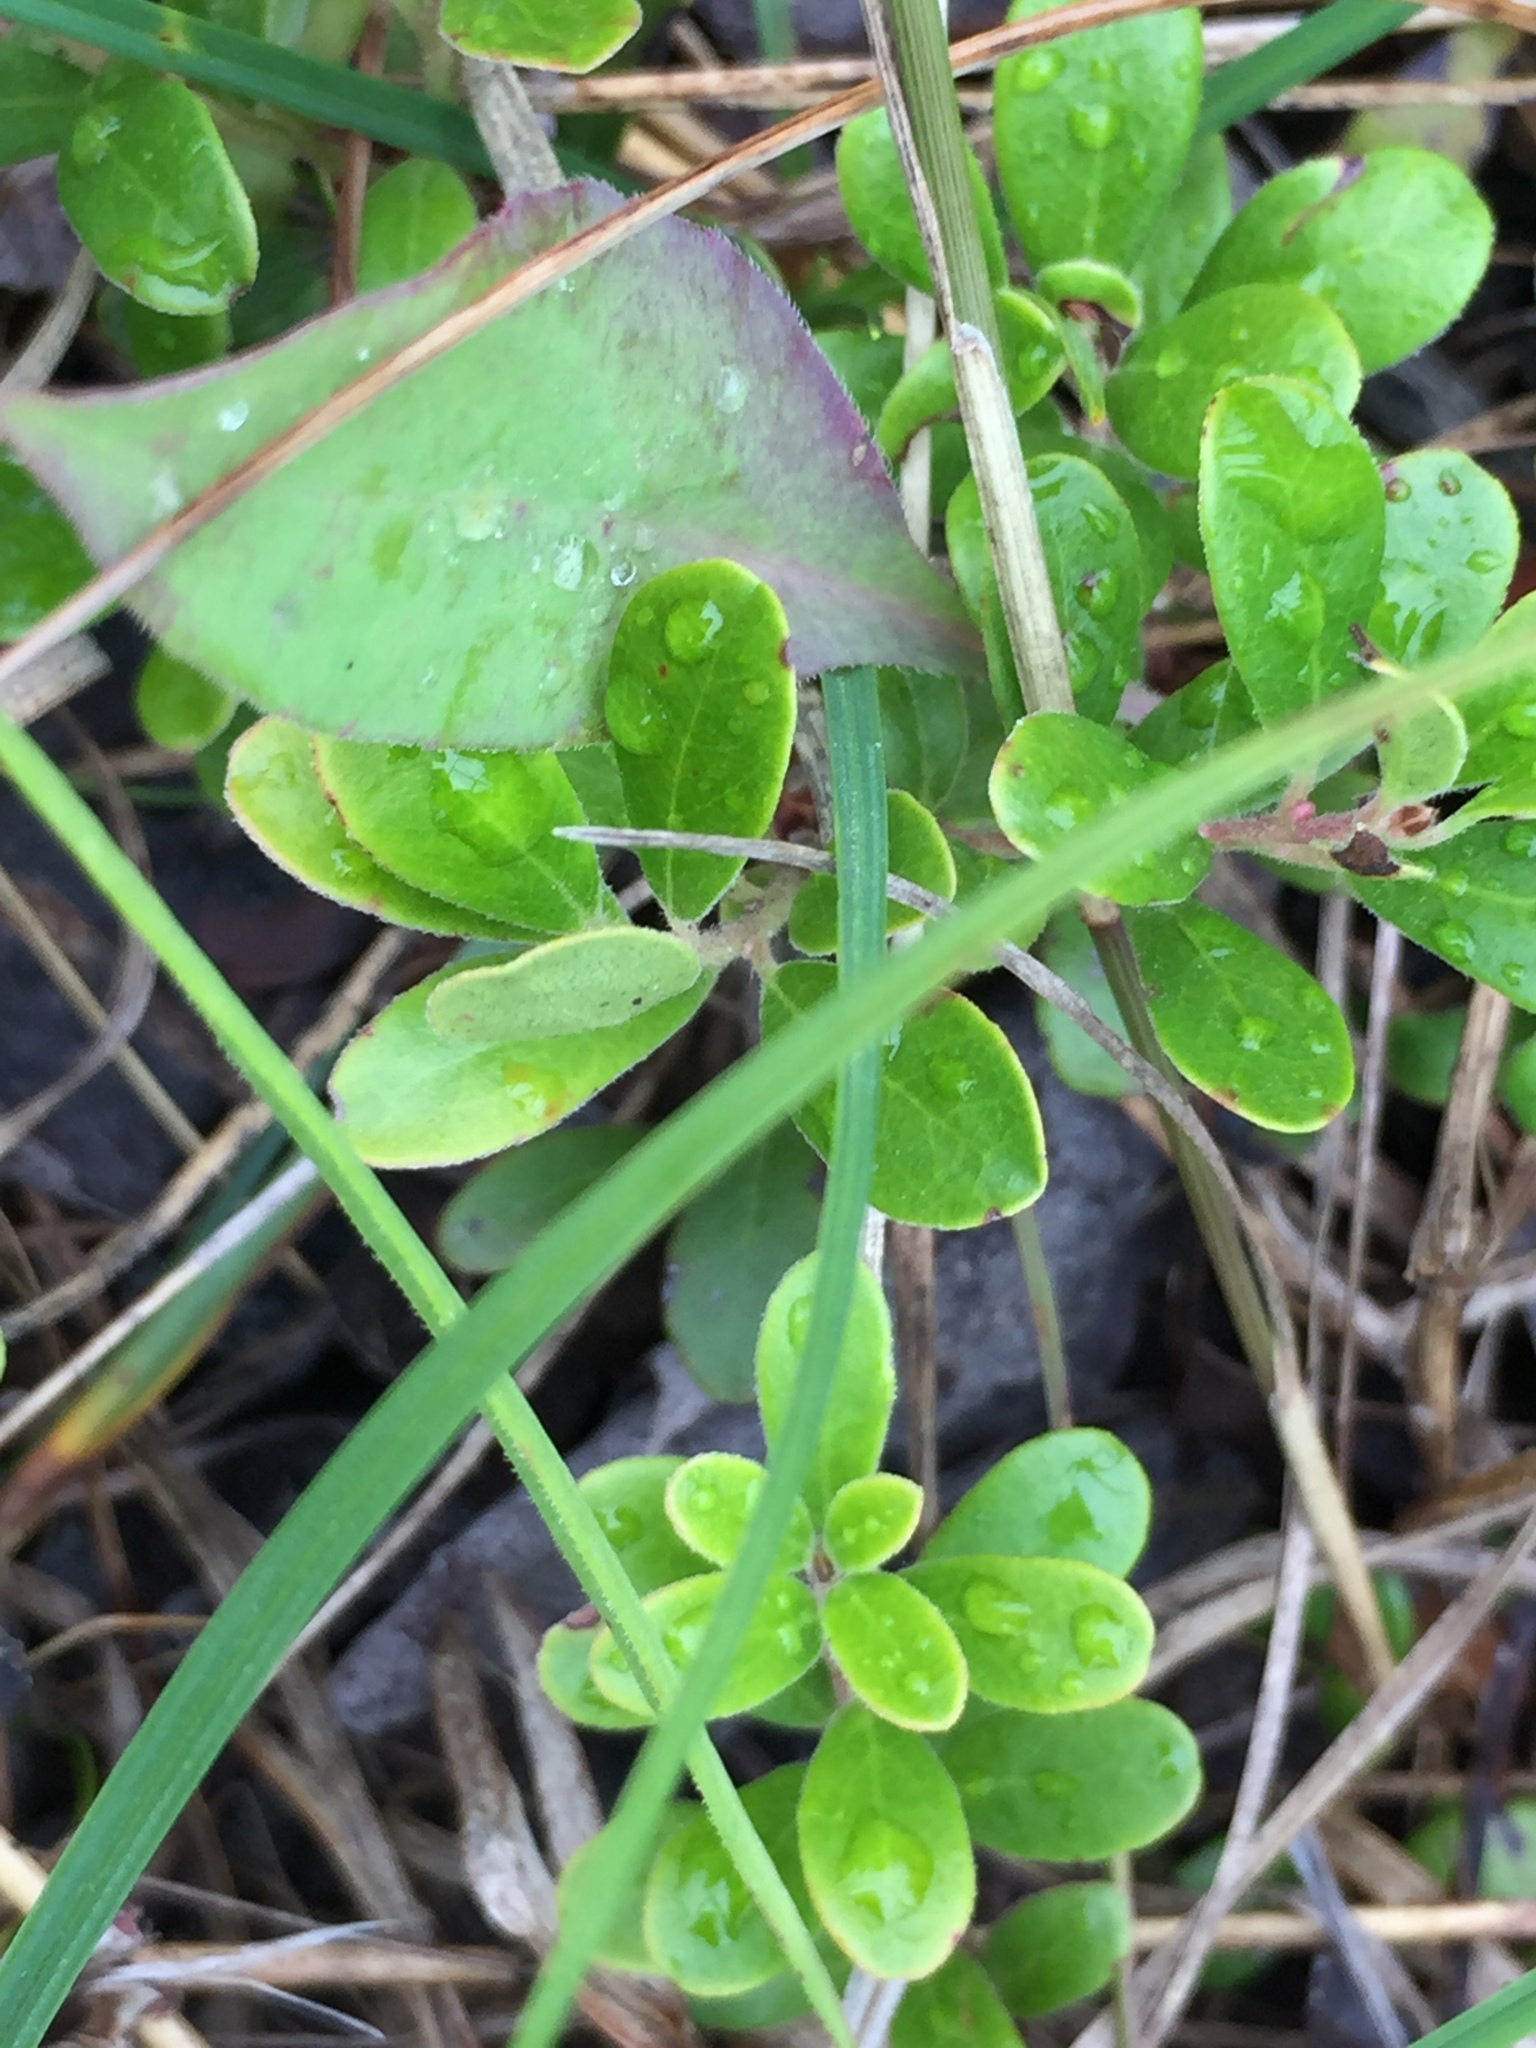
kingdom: Plantae
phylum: Tracheophyta
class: Magnoliopsida
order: Ericales
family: Ericaceae
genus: Arctostaphylos
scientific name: Arctostaphylos uva-ursi
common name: Bearberry
